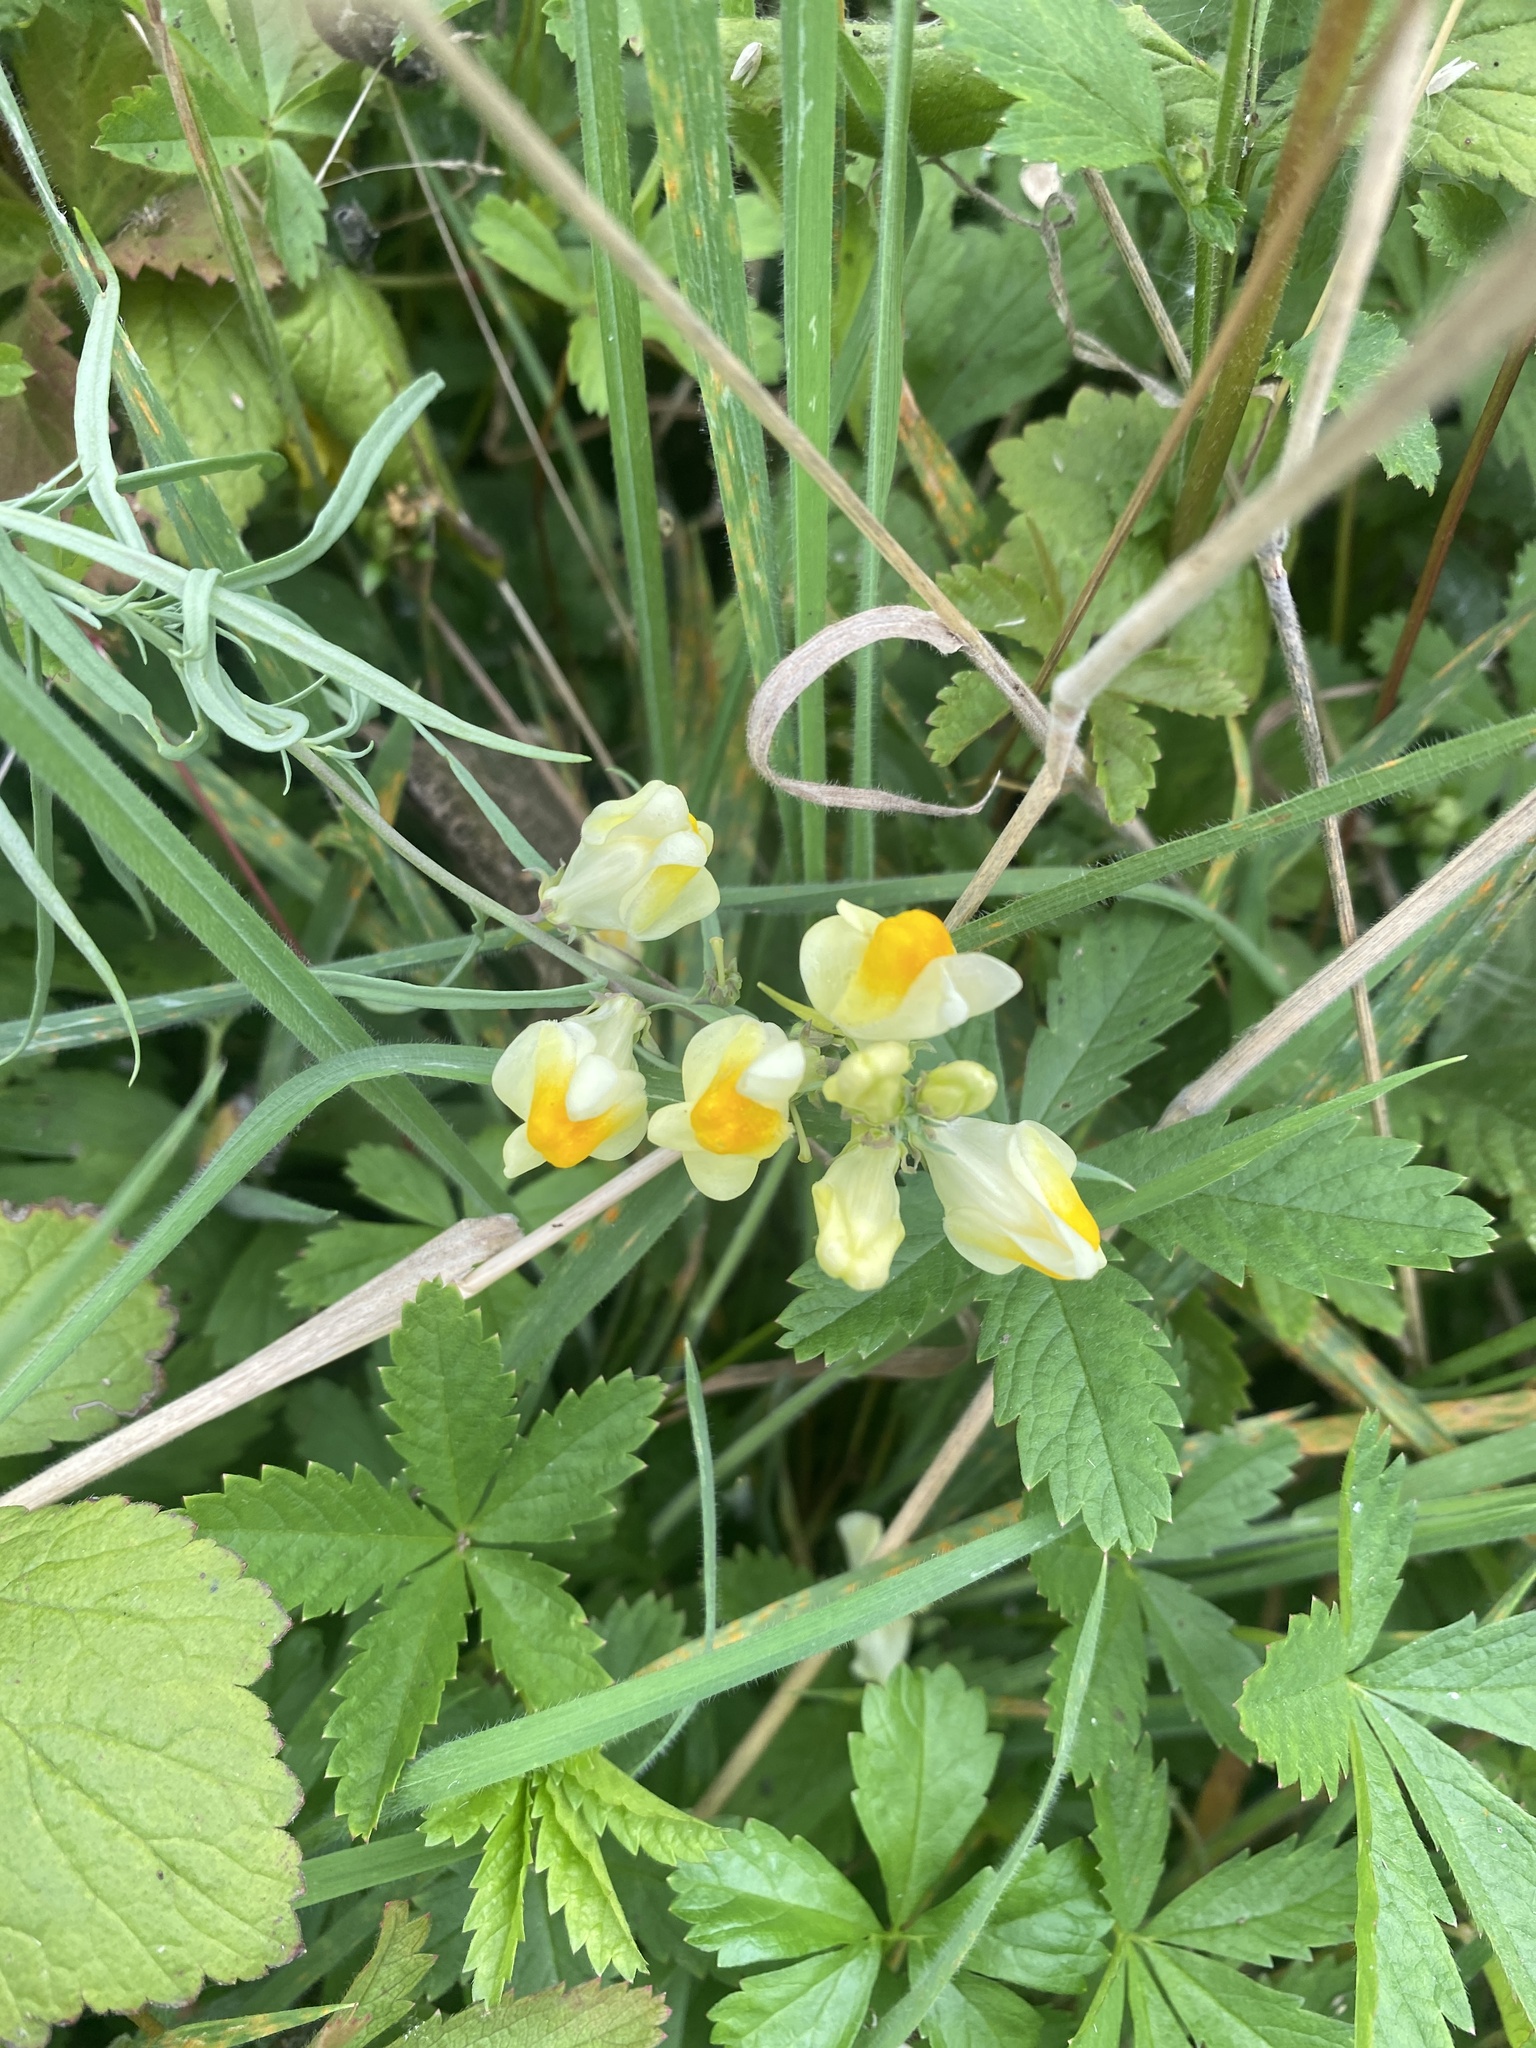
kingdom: Plantae
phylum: Tracheophyta
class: Magnoliopsida
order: Lamiales
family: Plantaginaceae
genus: Linaria
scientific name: Linaria vulgaris
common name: Butter and eggs
